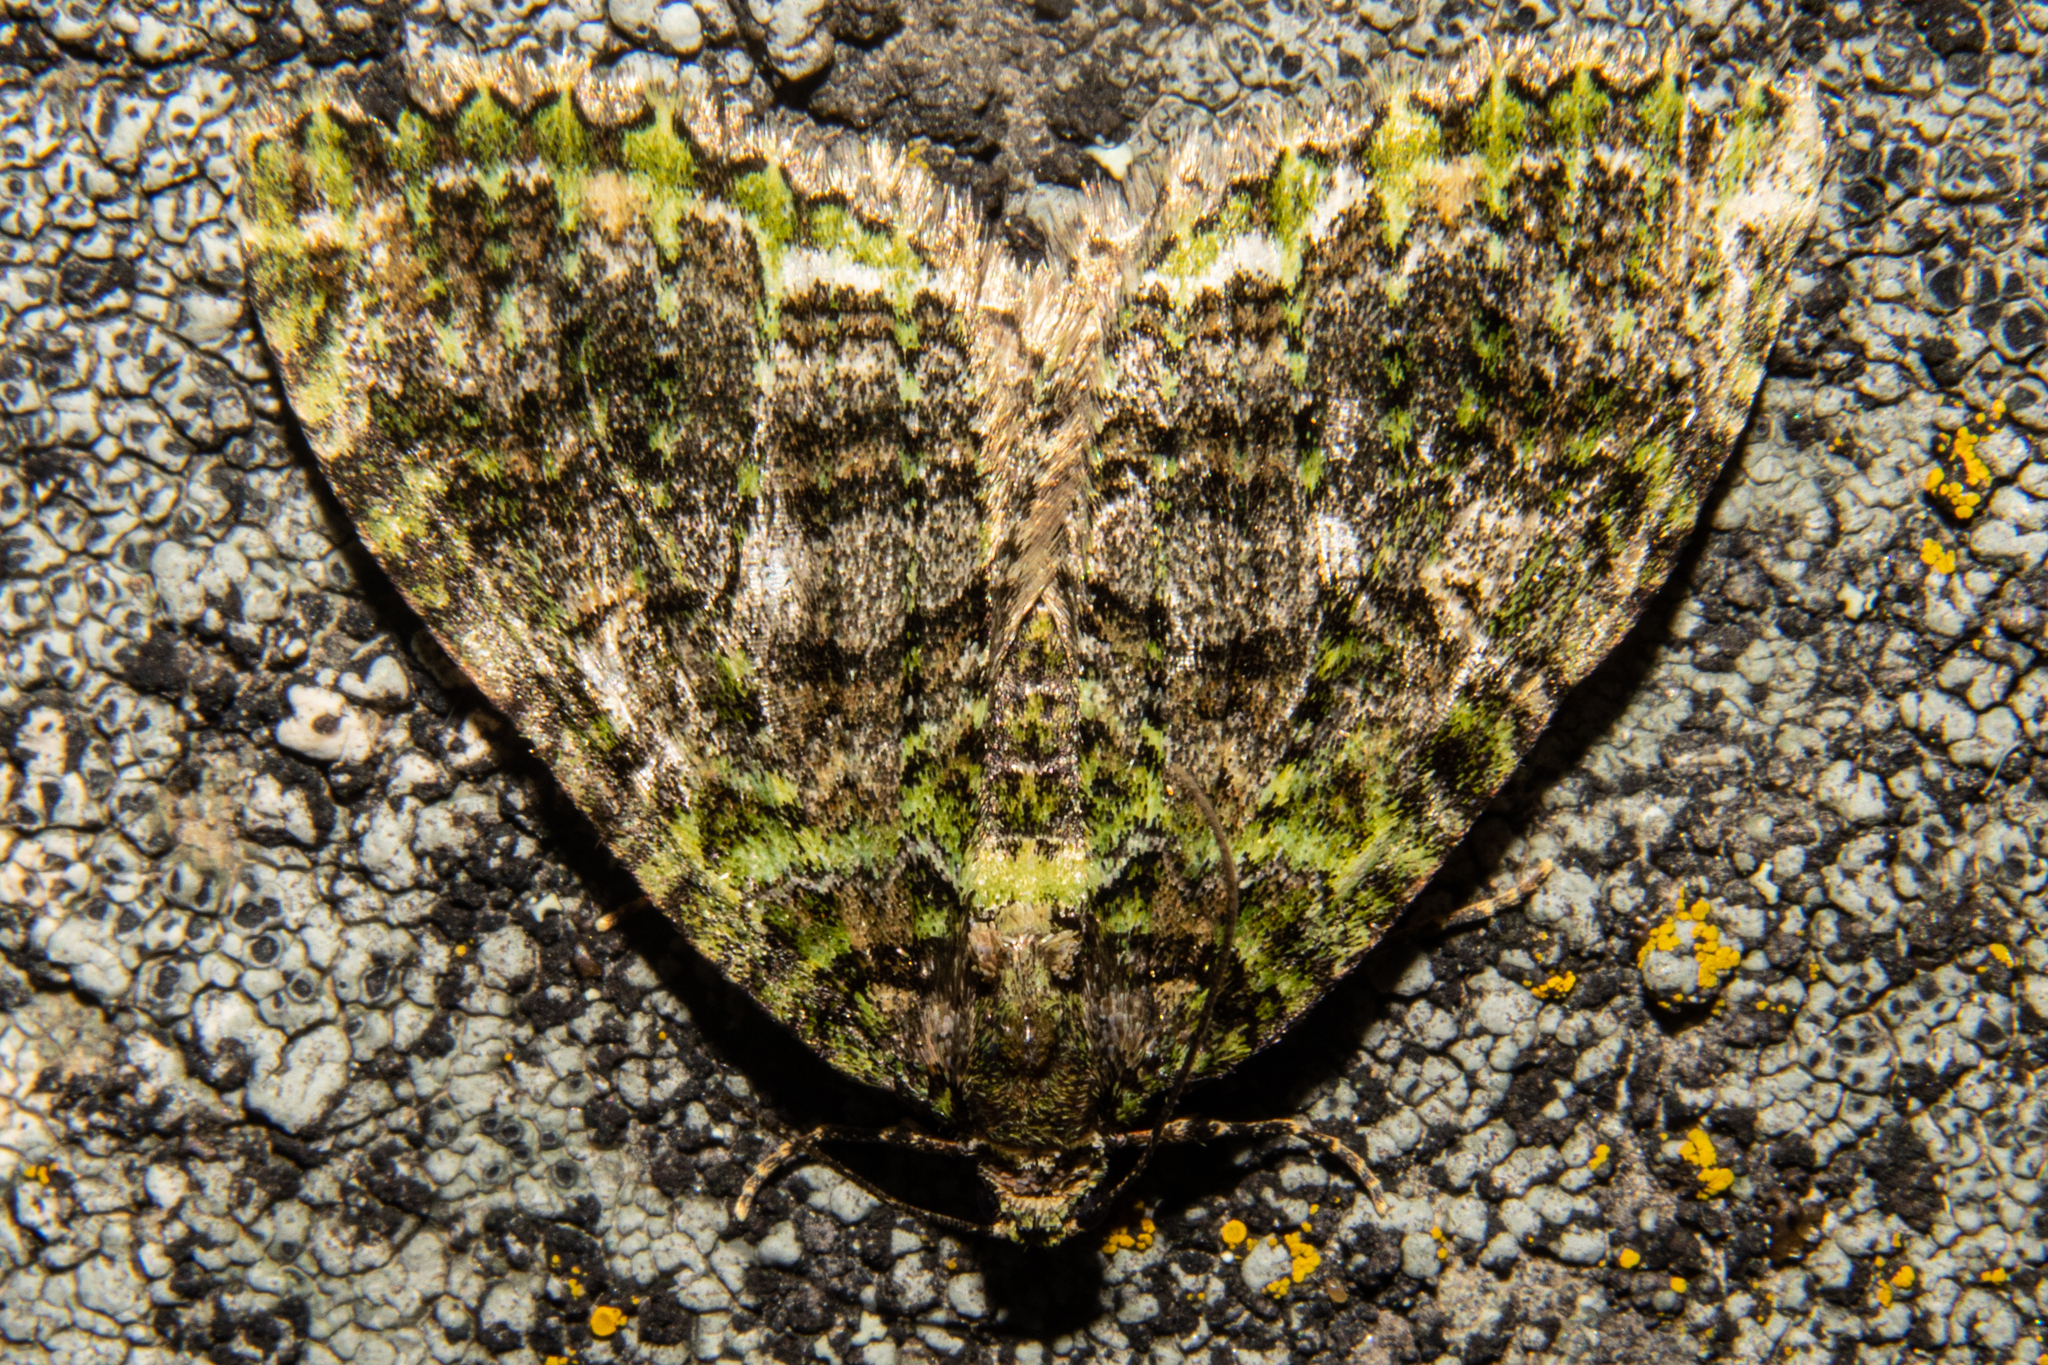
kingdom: Animalia
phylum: Arthropoda
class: Insecta
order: Lepidoptera
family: Geometridae
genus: Austrocidaria
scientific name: Austrocidaria similata
